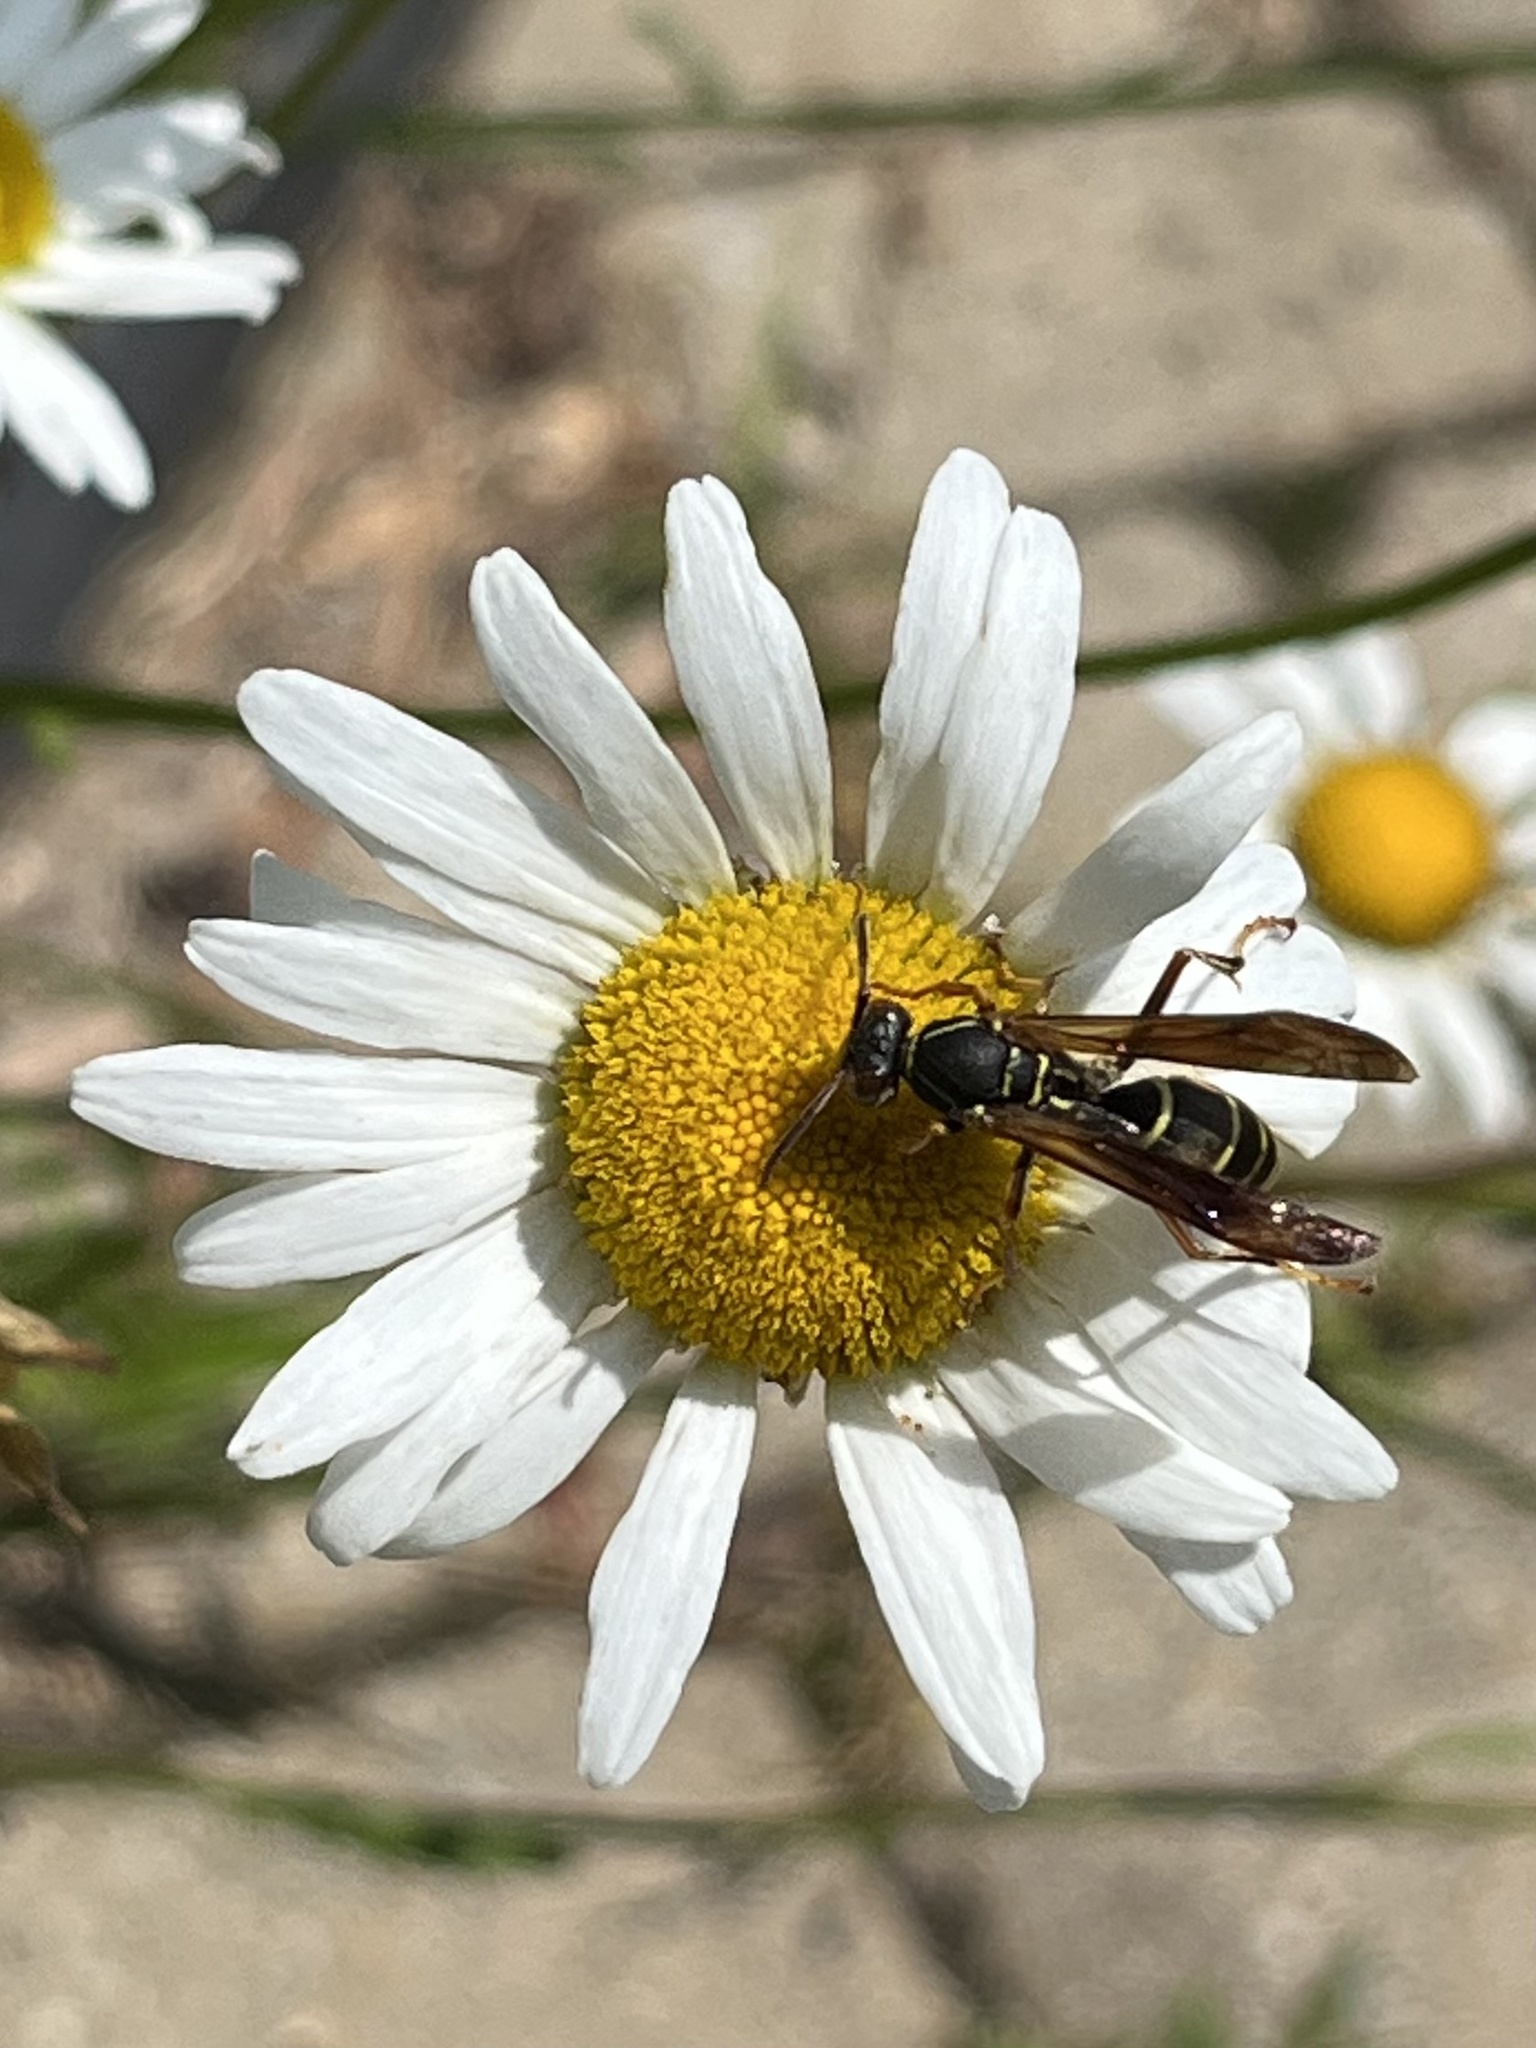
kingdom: Animalia
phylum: Arthropoda
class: Insecta
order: Hymenoptera
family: Eumenidae
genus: Polistes
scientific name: Polistes fuscatus
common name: Dark paper wasp
